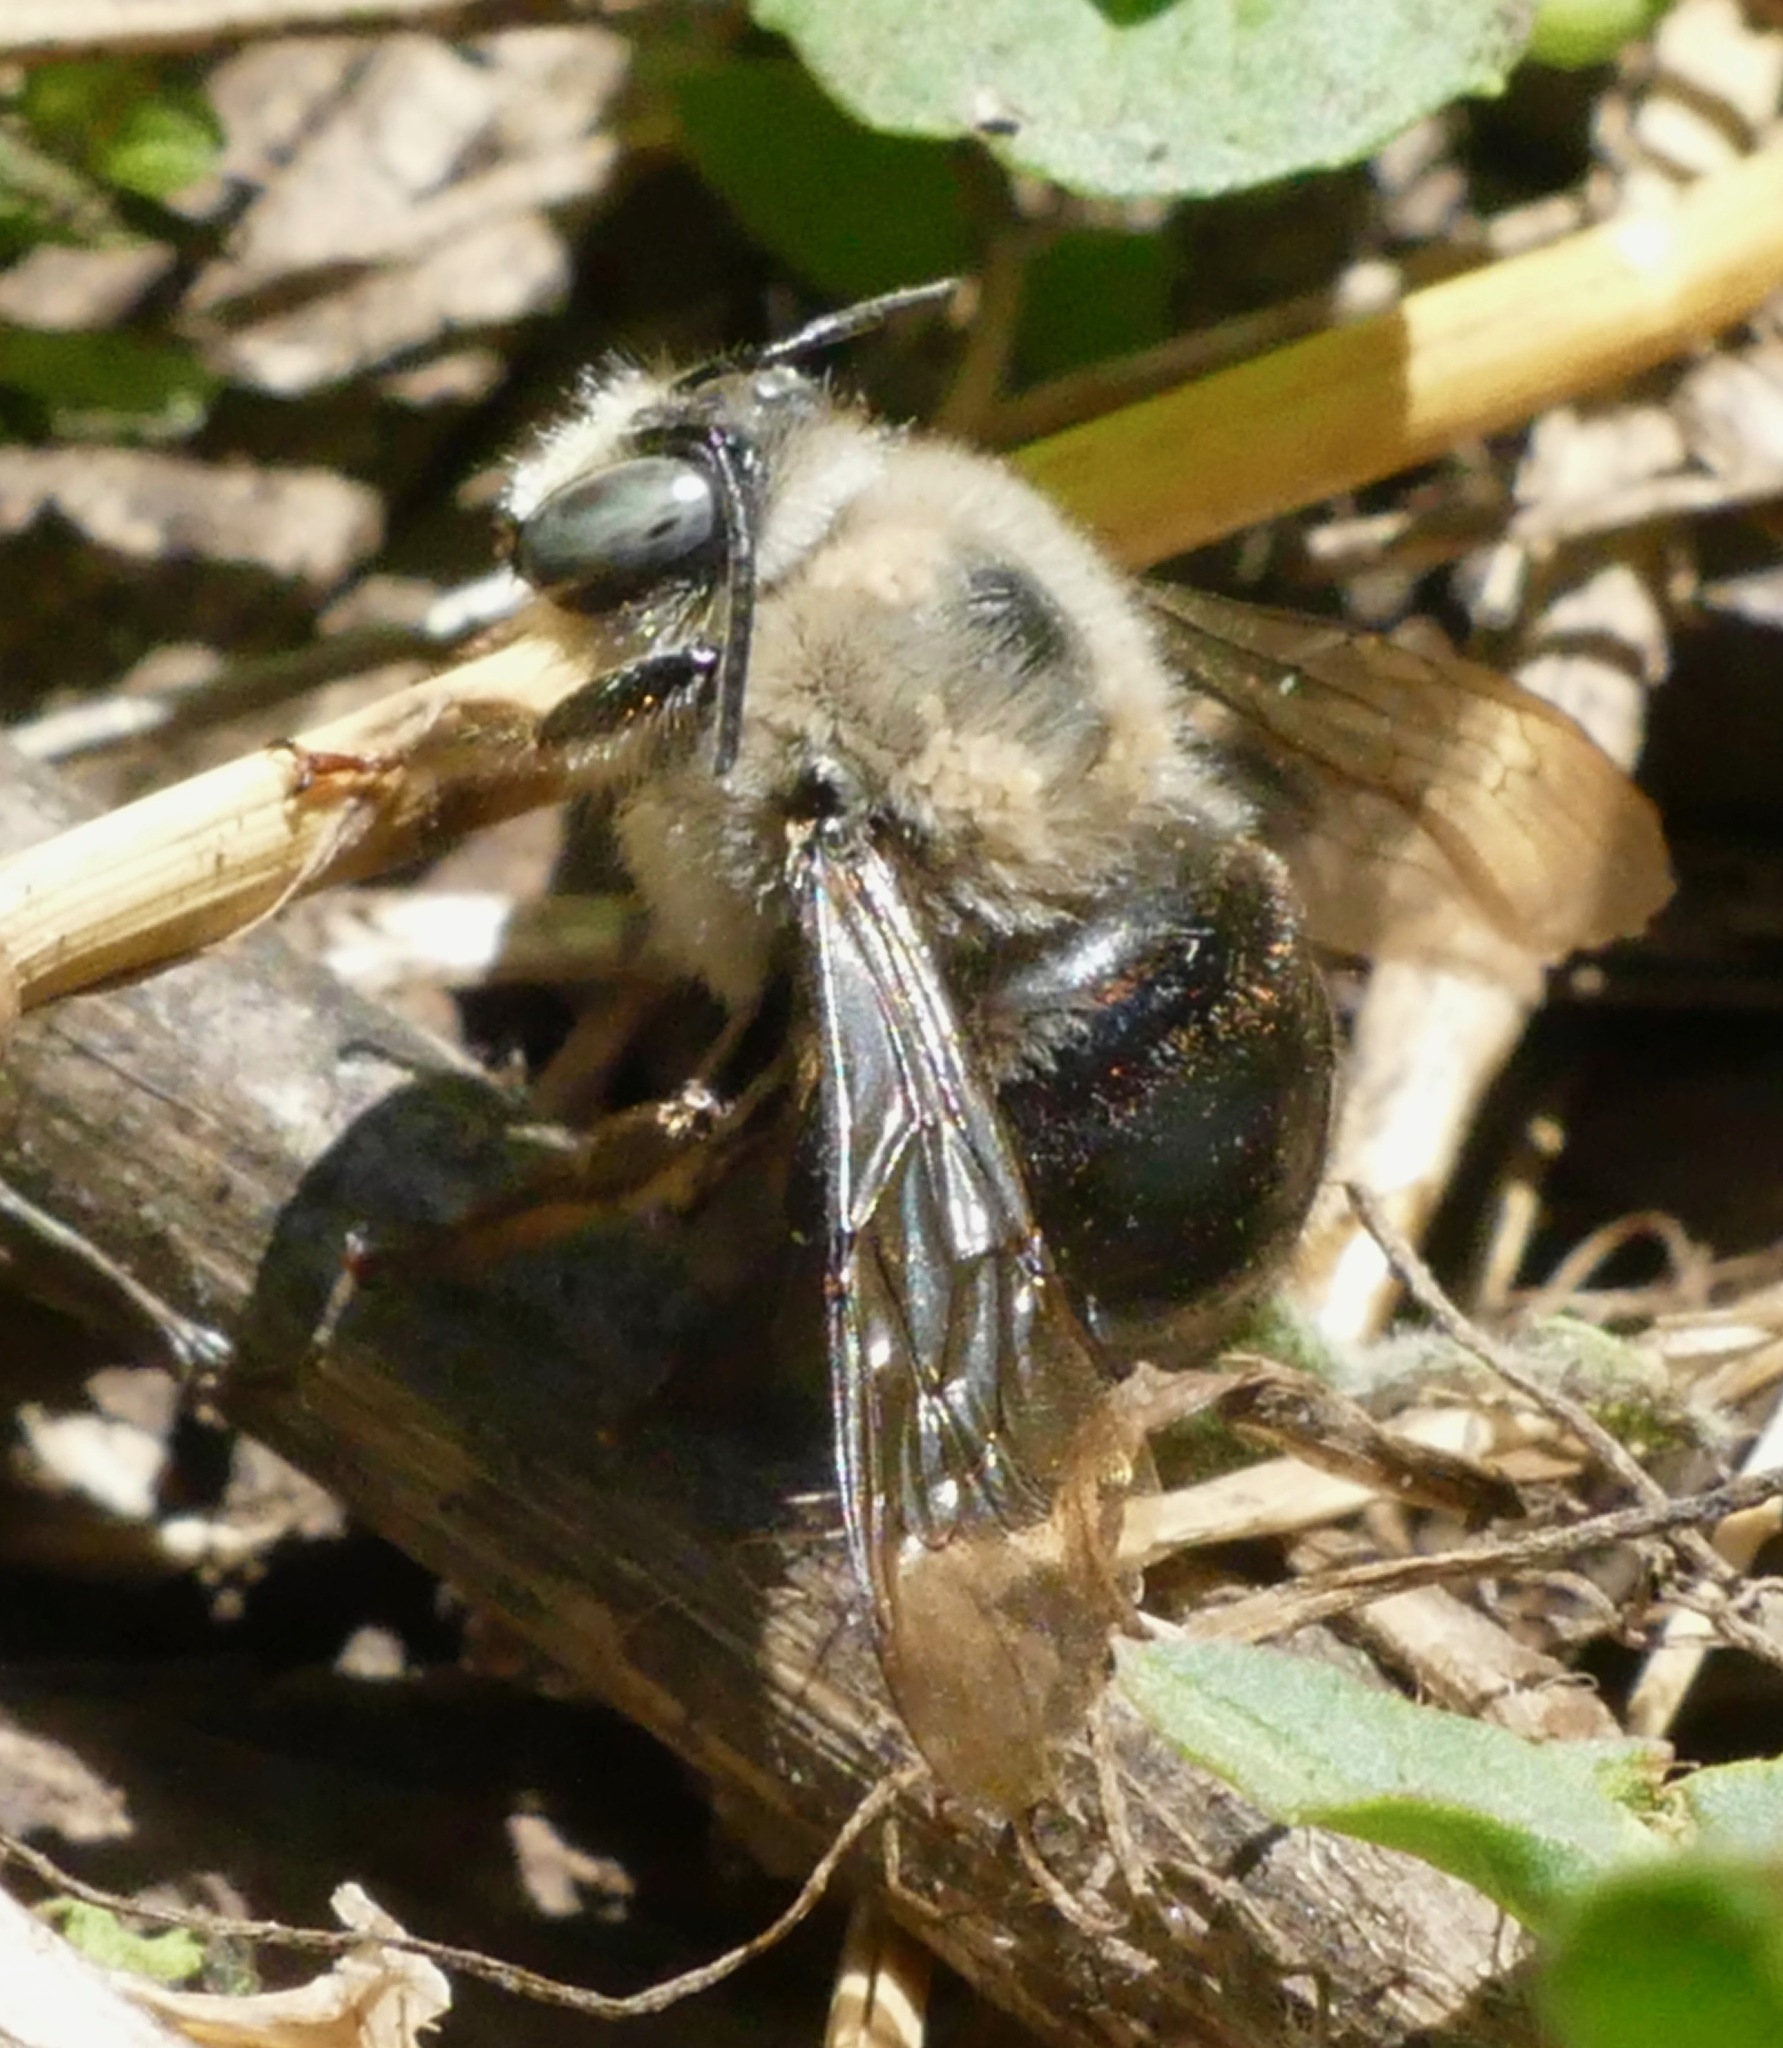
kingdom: Animalia
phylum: Arthropoda
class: Insecta
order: Hymenoptera
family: Apidae
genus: Xylocopa
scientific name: Xylocopa tabaniformis
